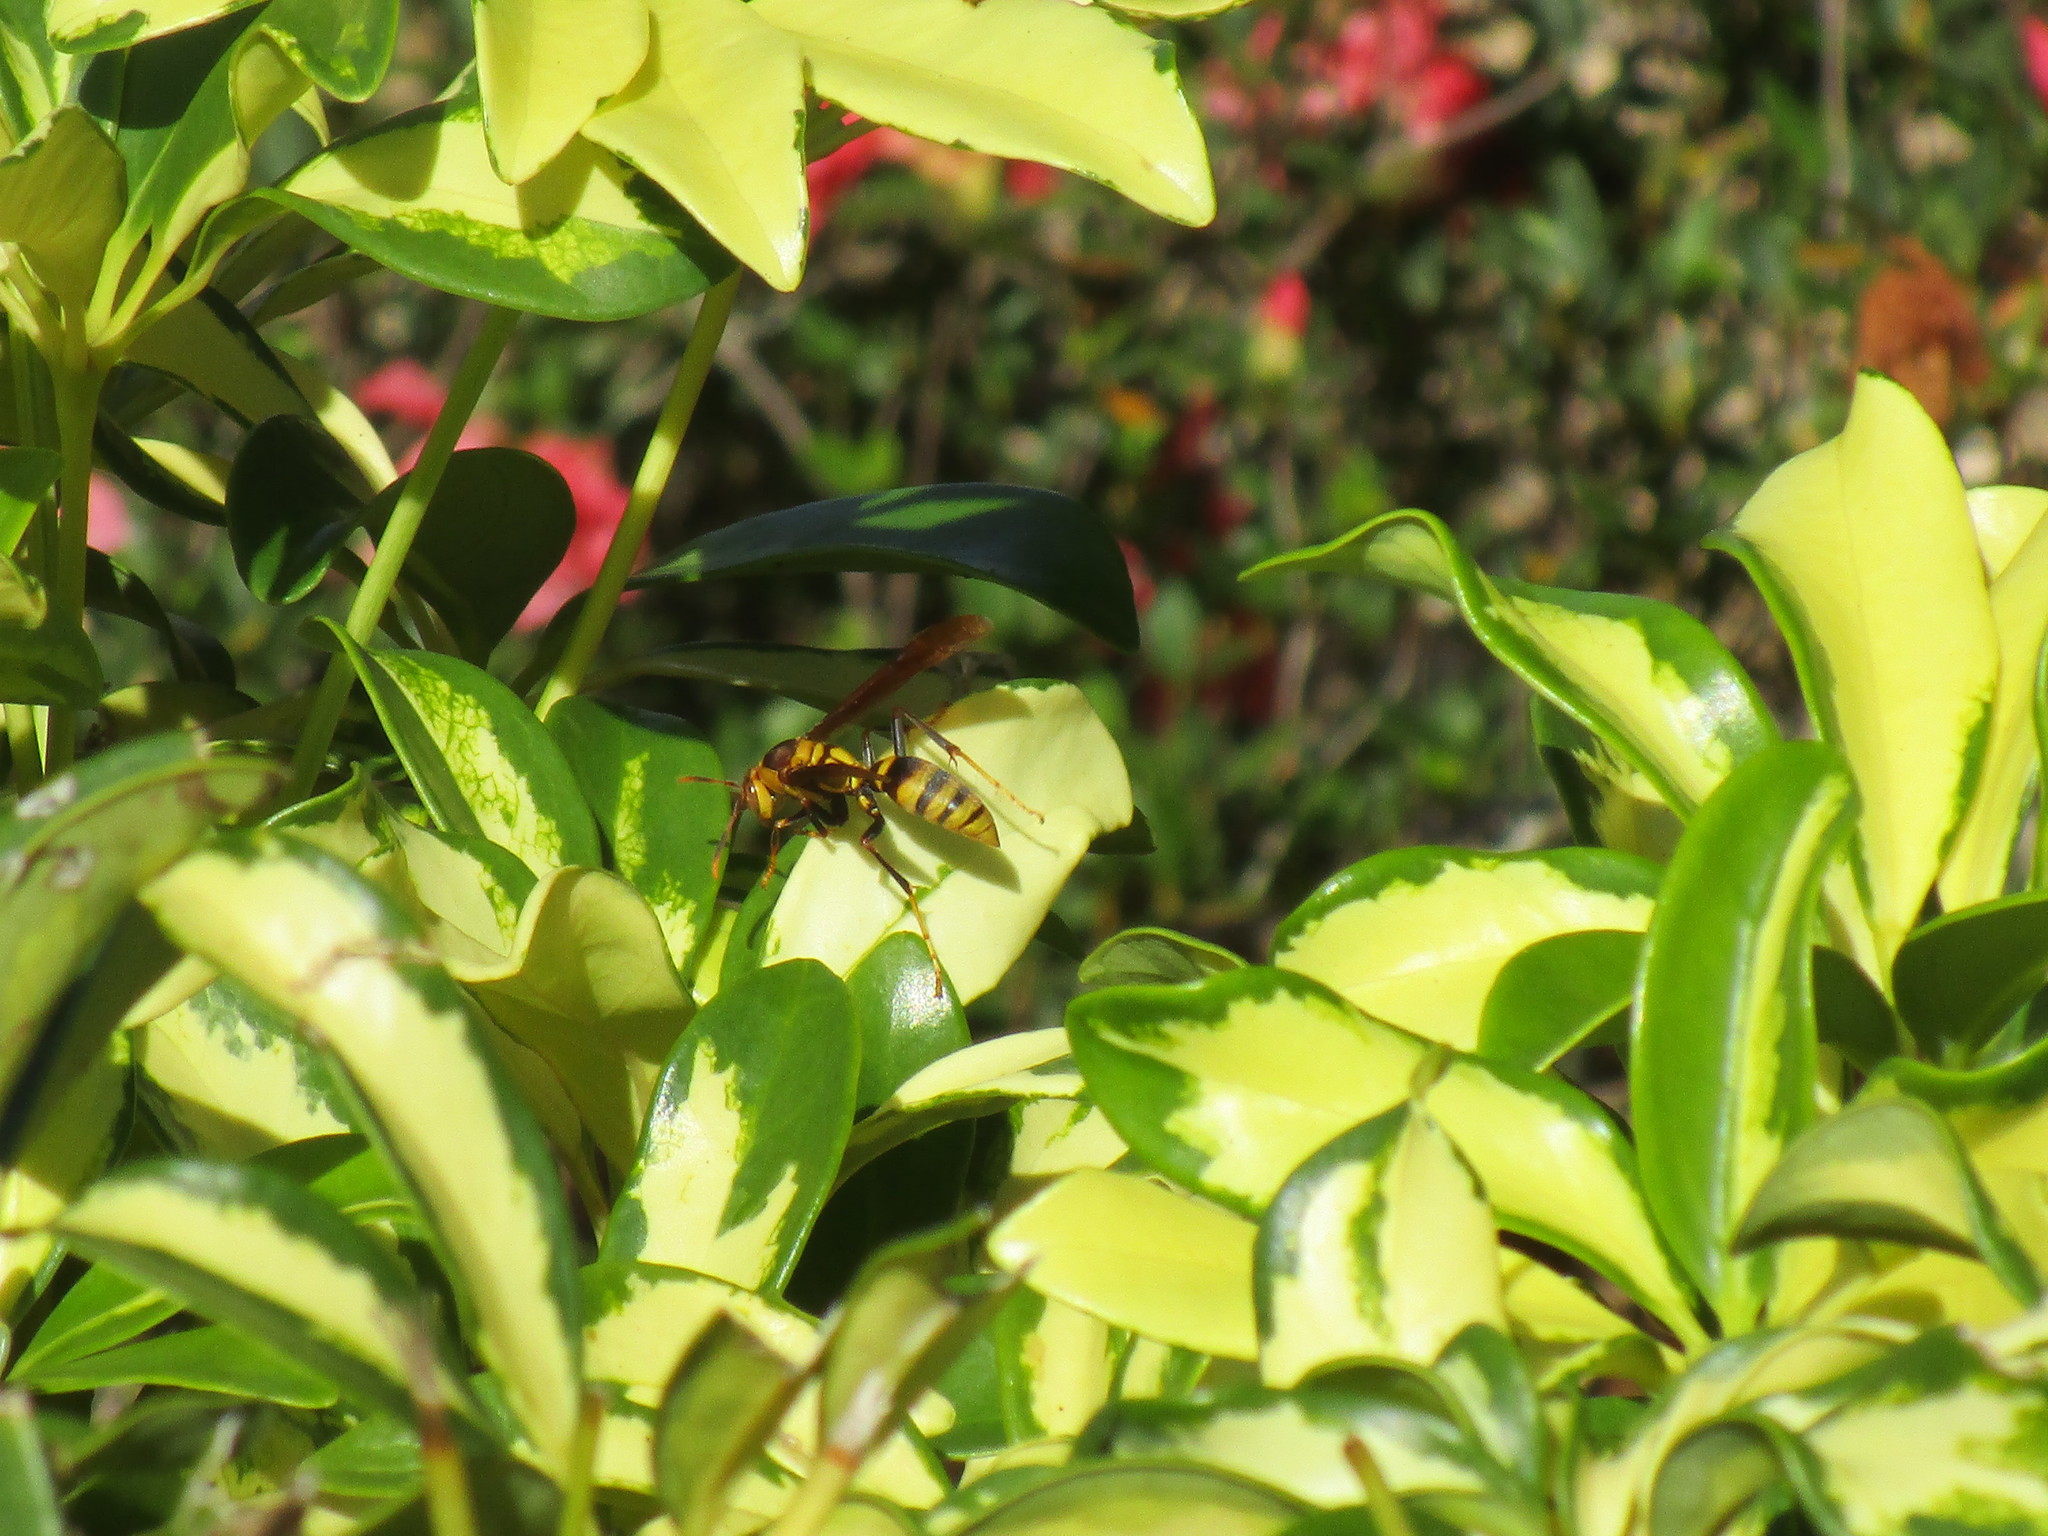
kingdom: Animalia
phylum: Arthropoda
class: Insecta
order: Hymenoptera
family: Eumenidae
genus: Polistes
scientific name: Polistes major
